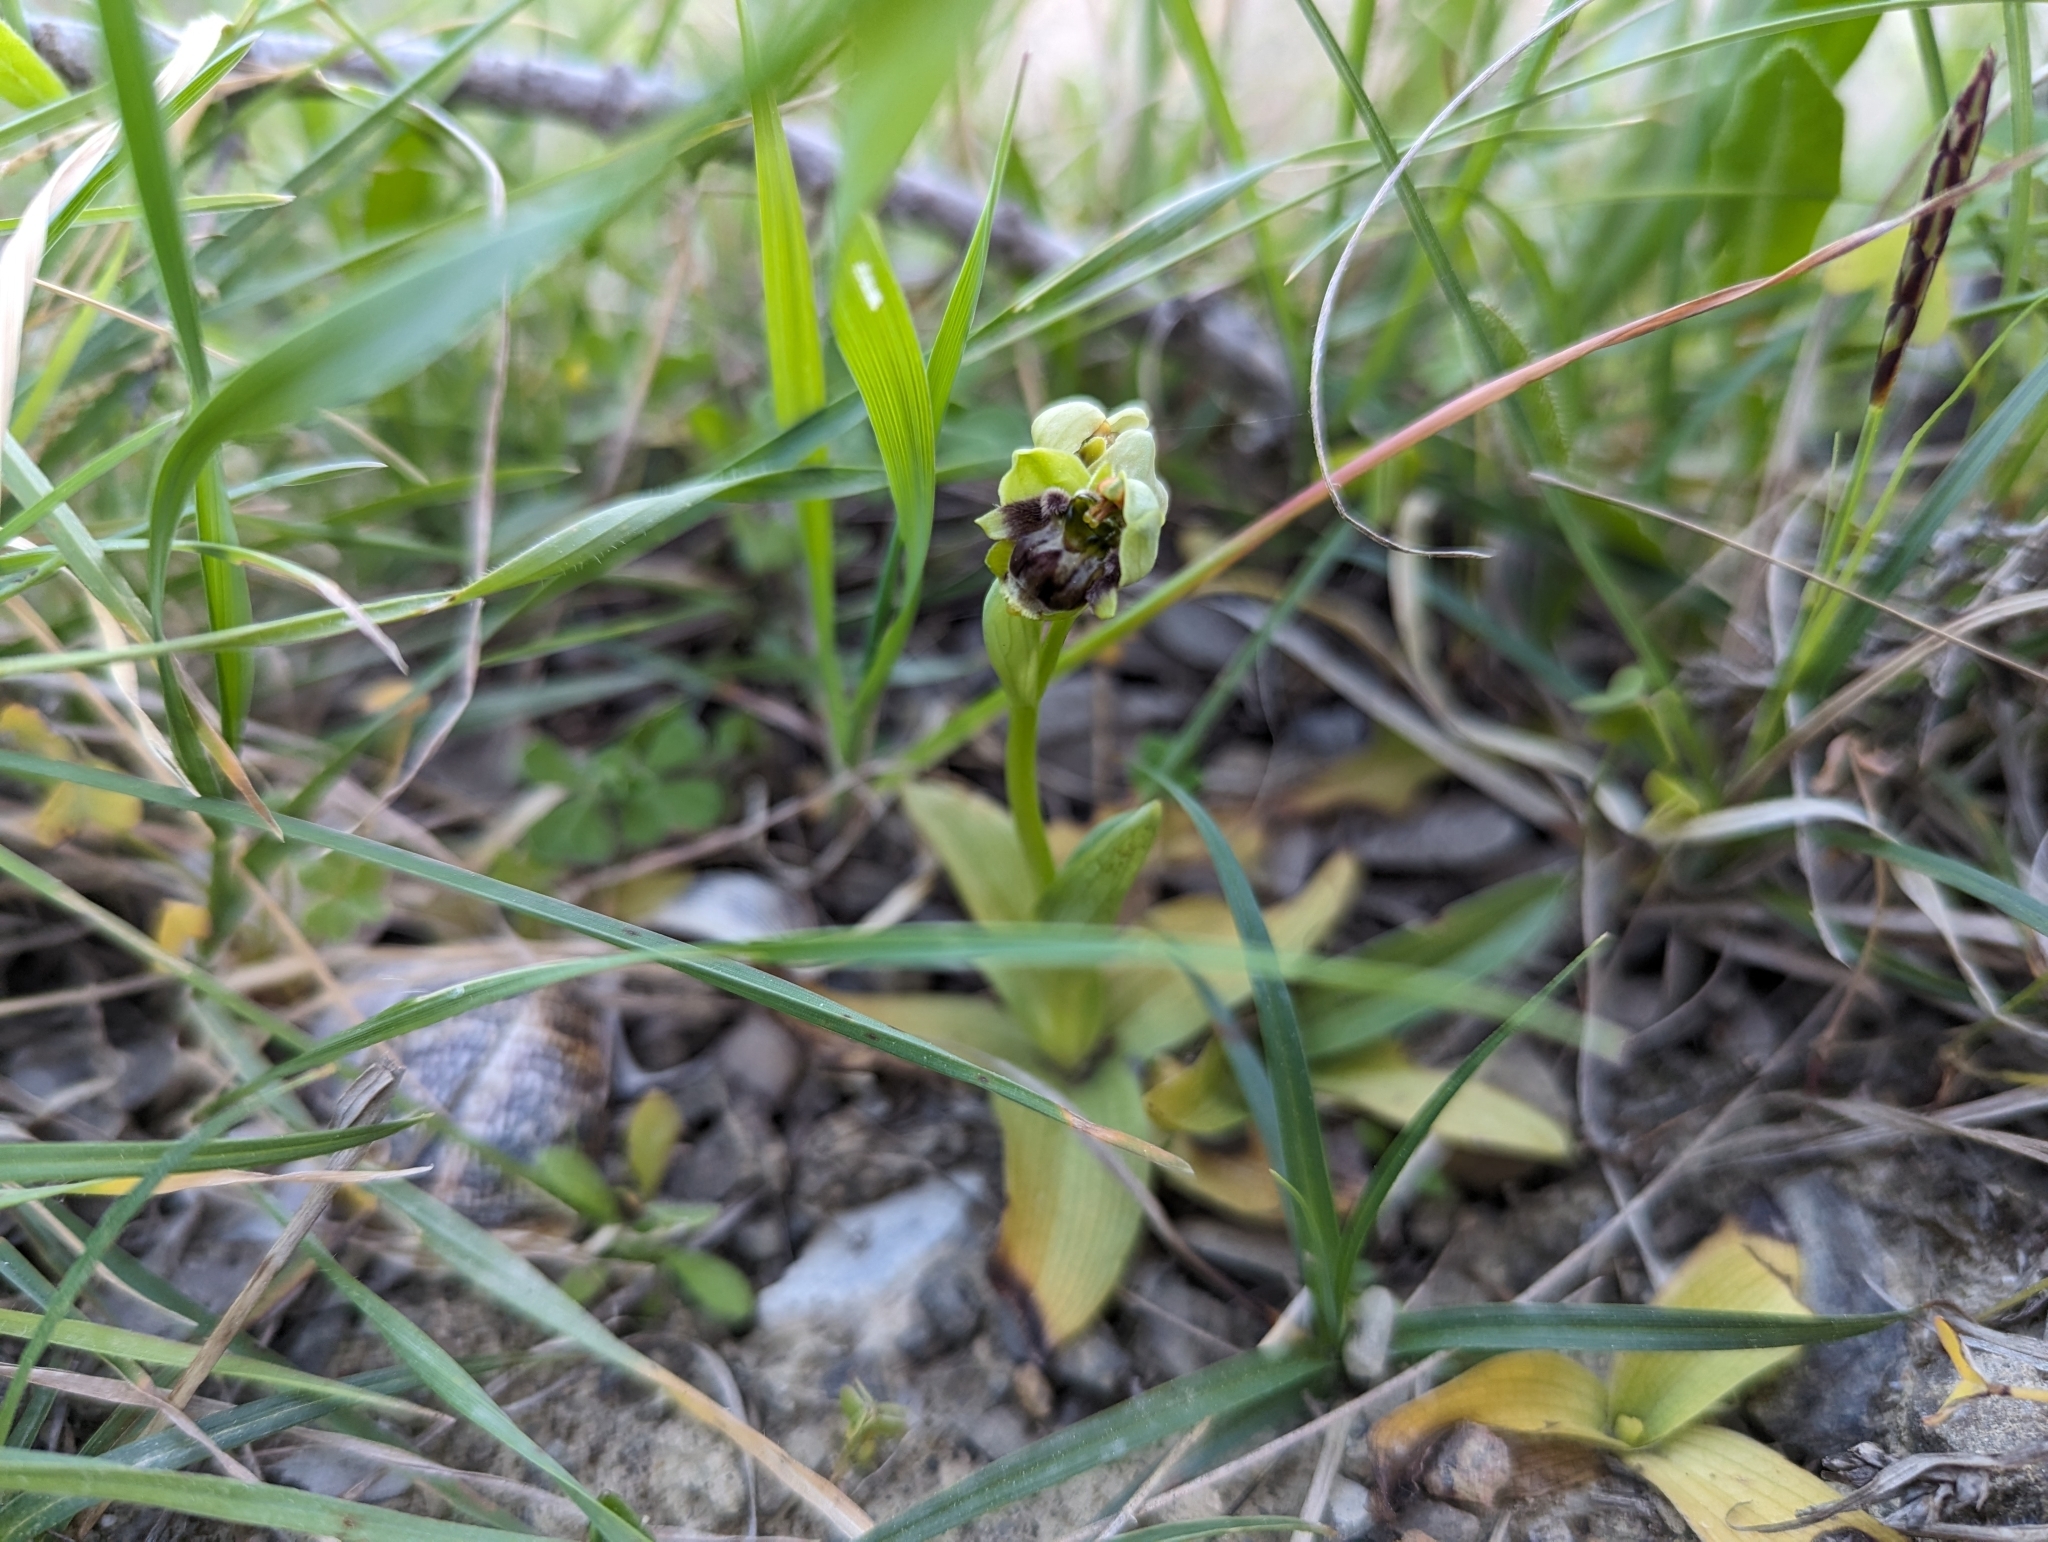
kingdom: Plantae
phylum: Tracheophyta
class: Liliopsida
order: Asparagales
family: Orchidaceae
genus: Ophrys
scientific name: Ophrys bombyliflora
